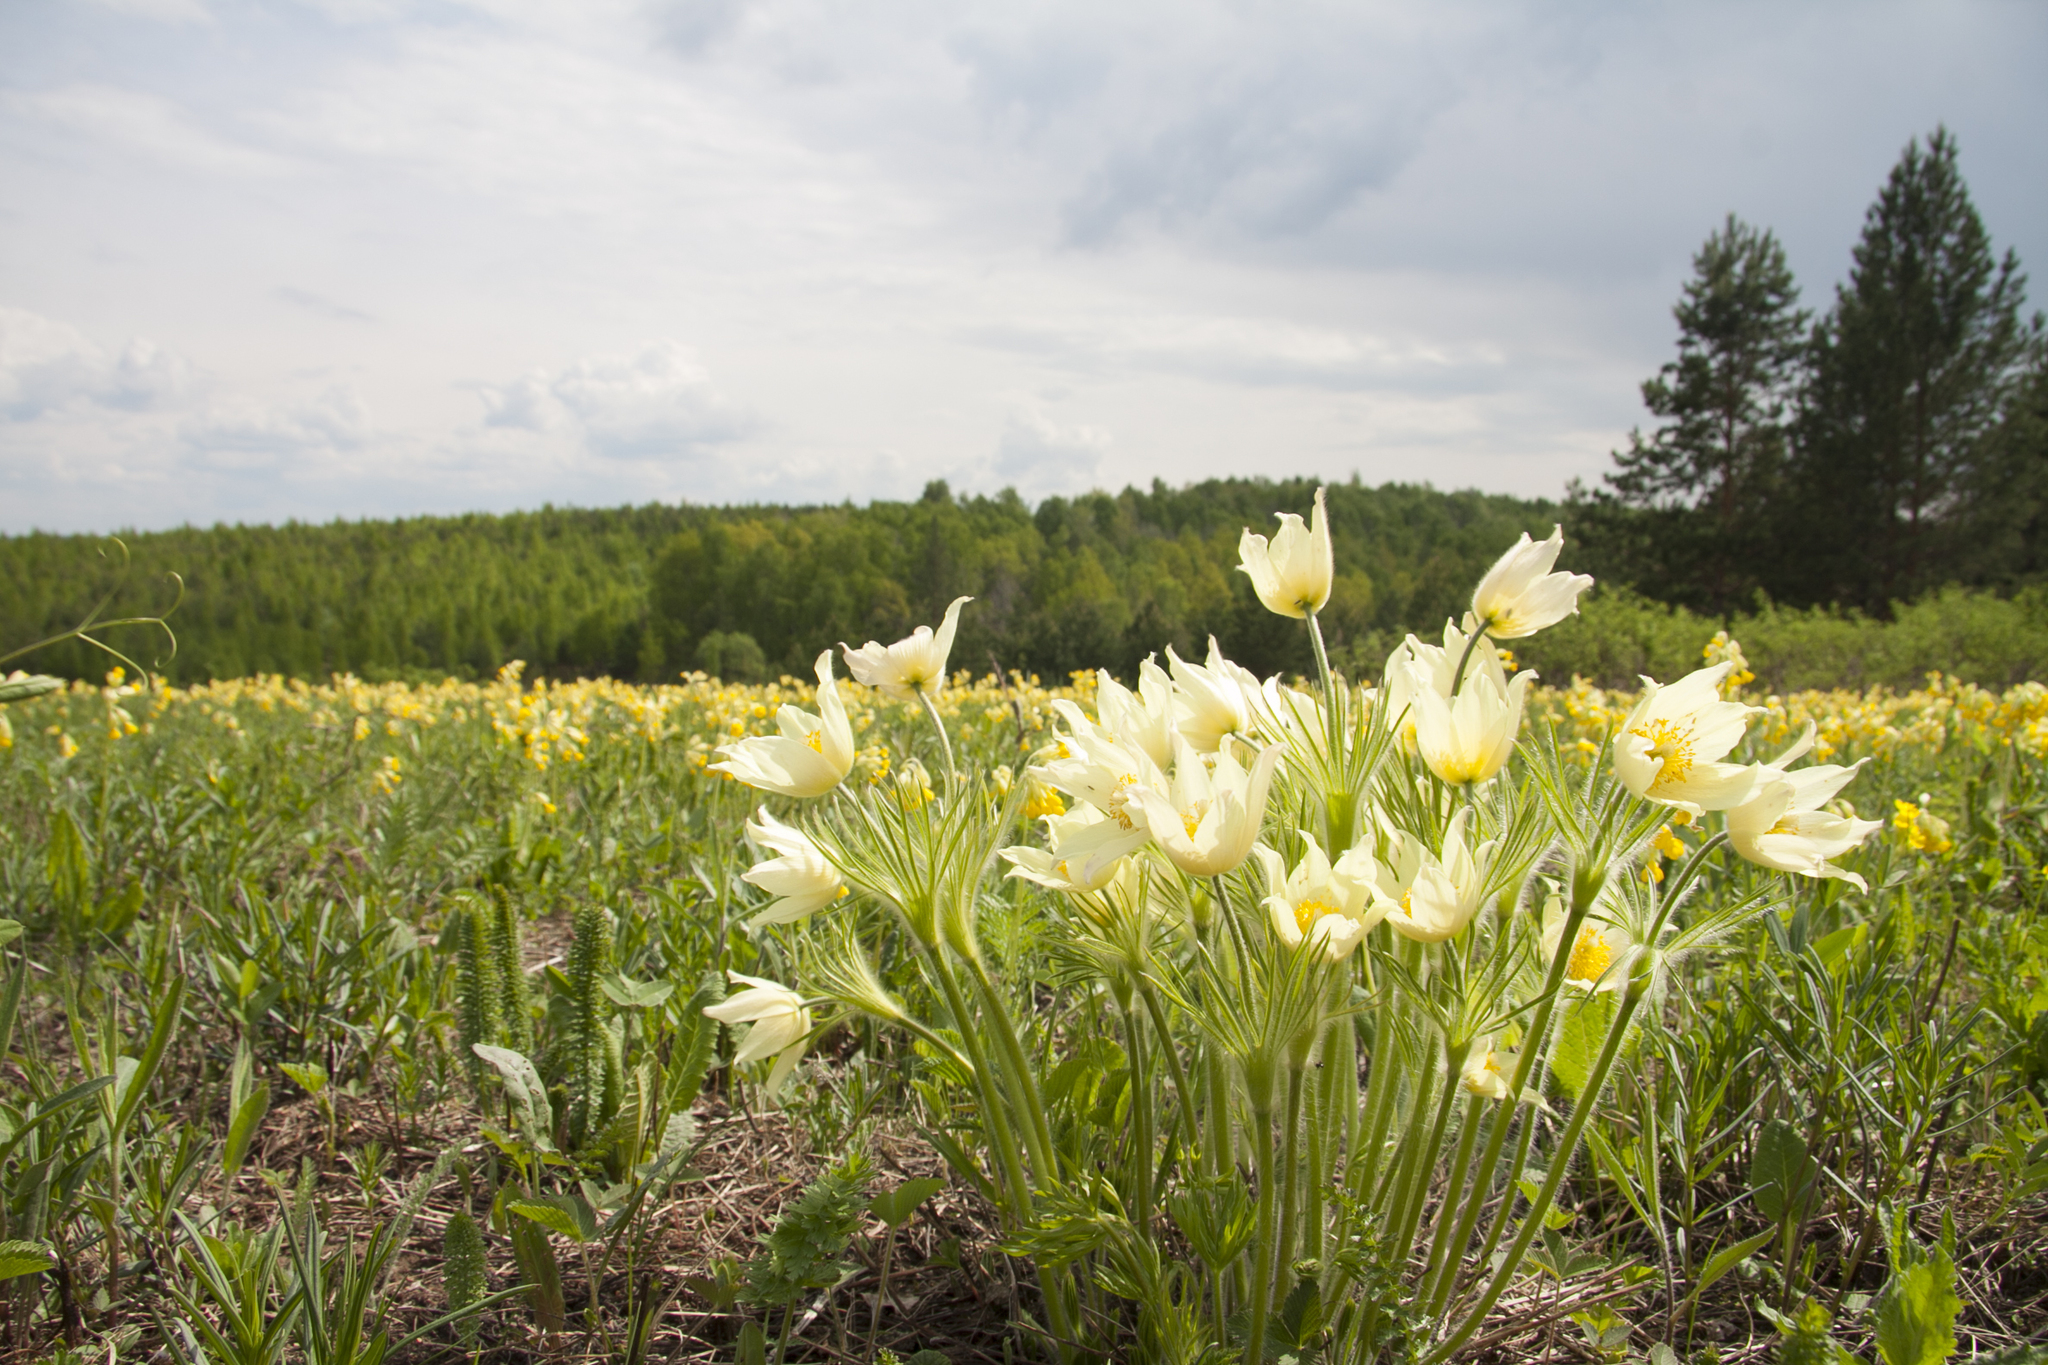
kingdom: Plantae
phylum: Tracheophyta
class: Magnoliopsida
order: Ranunculales
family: Ranunculaceae
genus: Pulsatilla
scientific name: Pulsatilla patens
